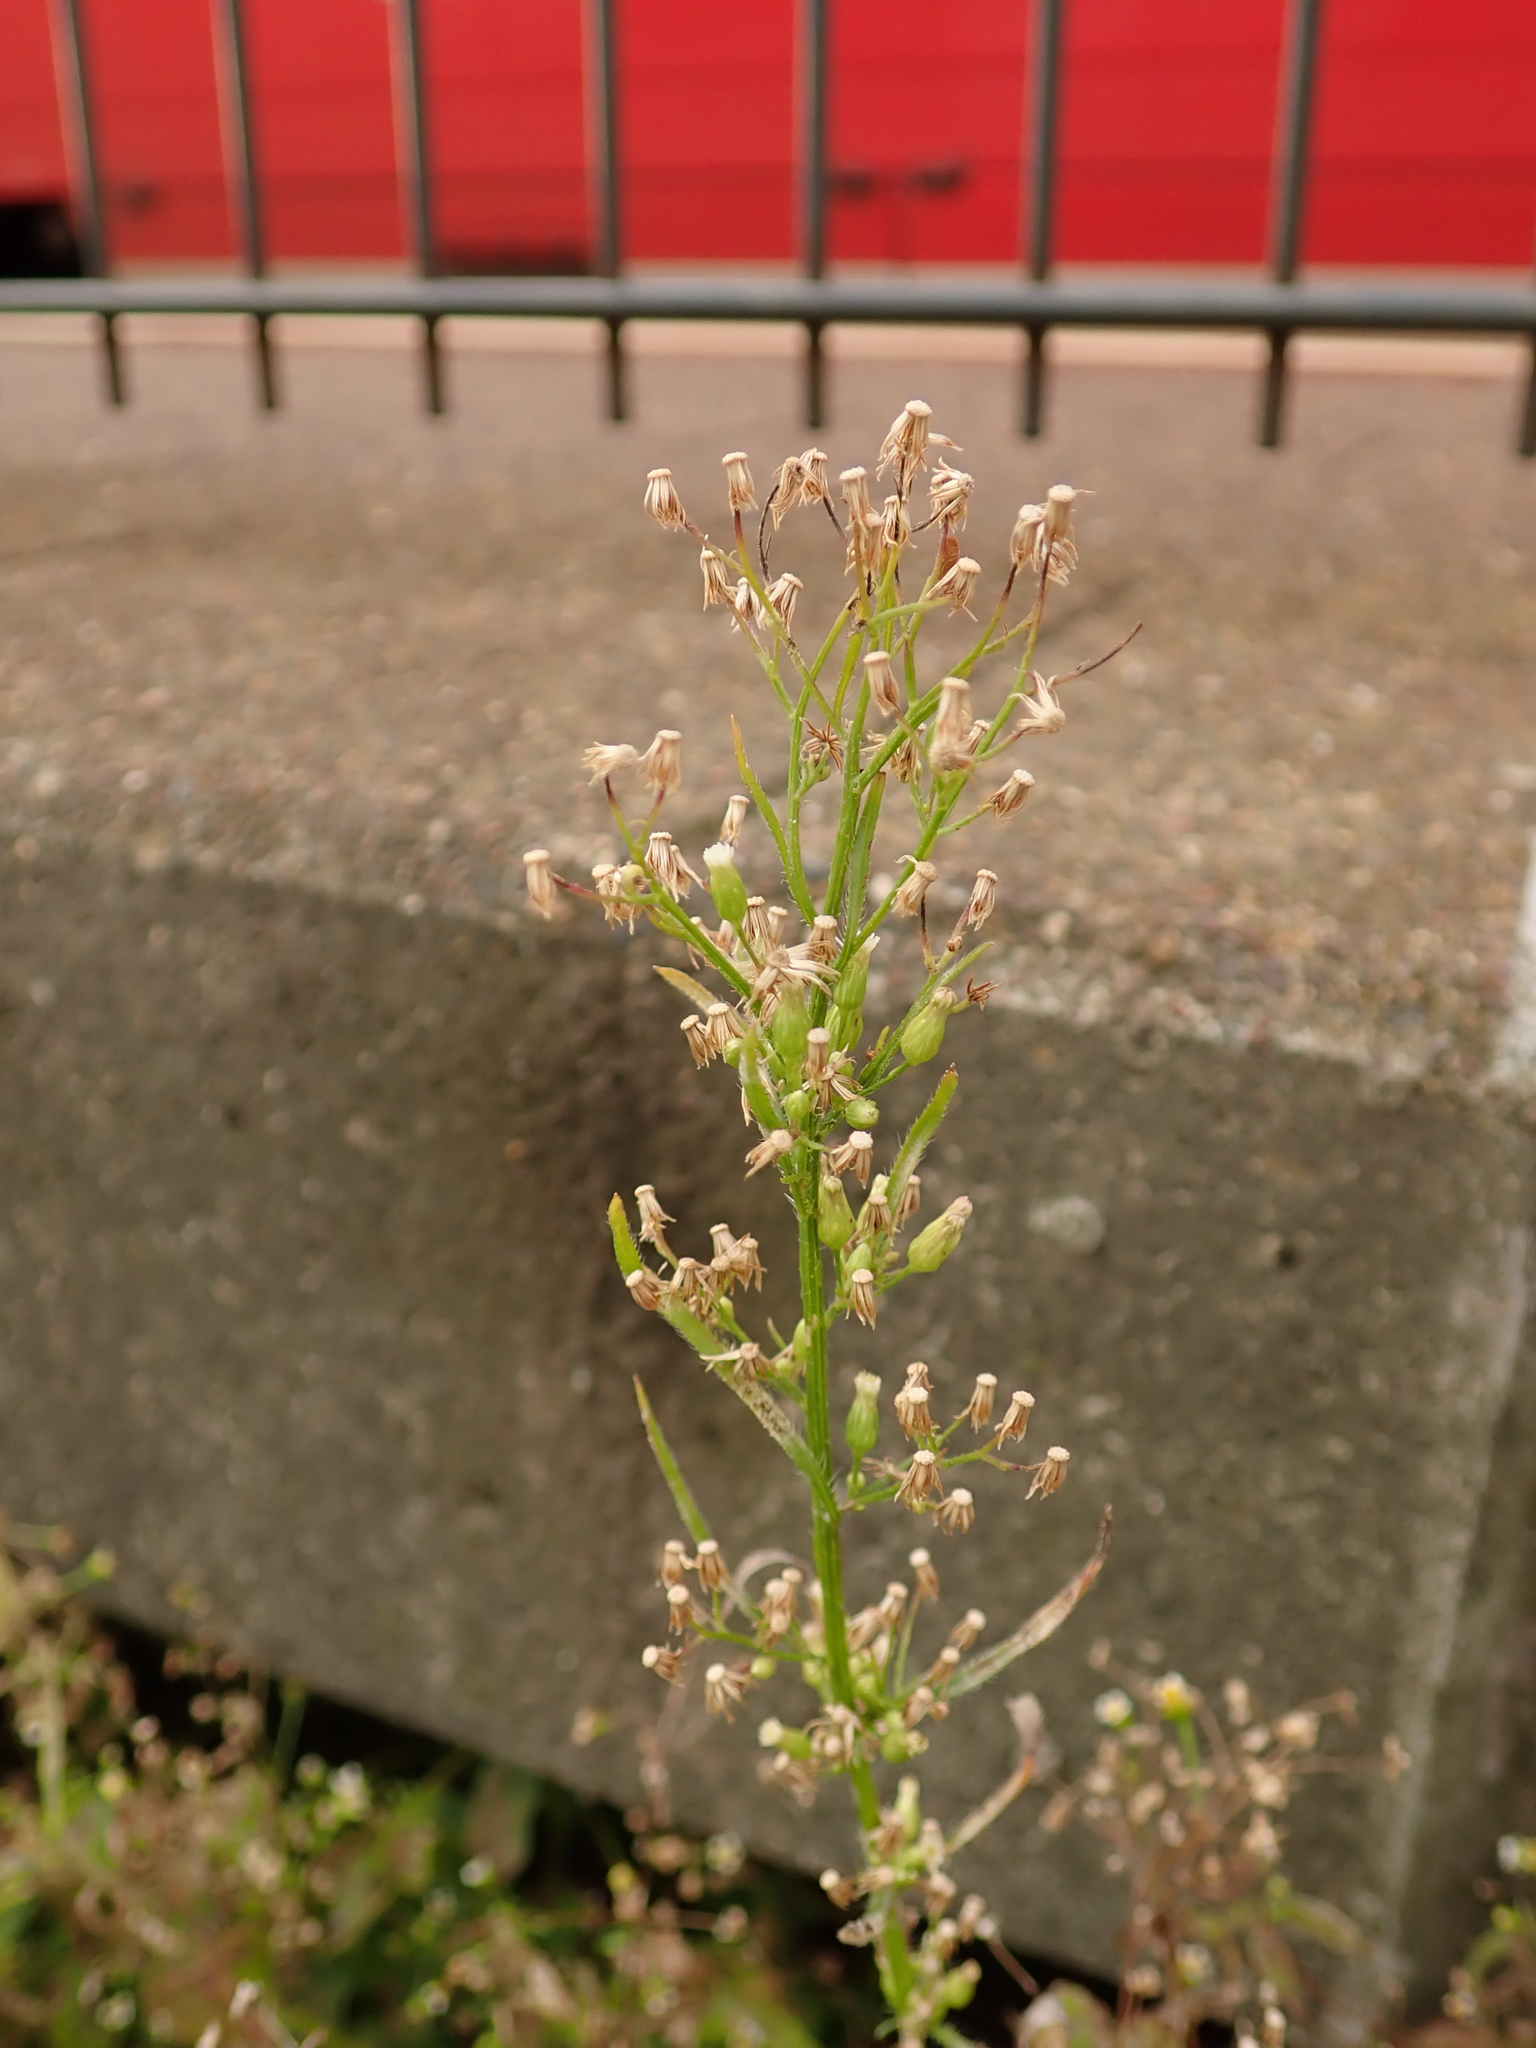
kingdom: Plantae
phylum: Tracheophyta
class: Magnoliopsida
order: Asterales
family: Asteraceae
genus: Erigeron
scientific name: Erigeron canadensis
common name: Canadian fleabane
